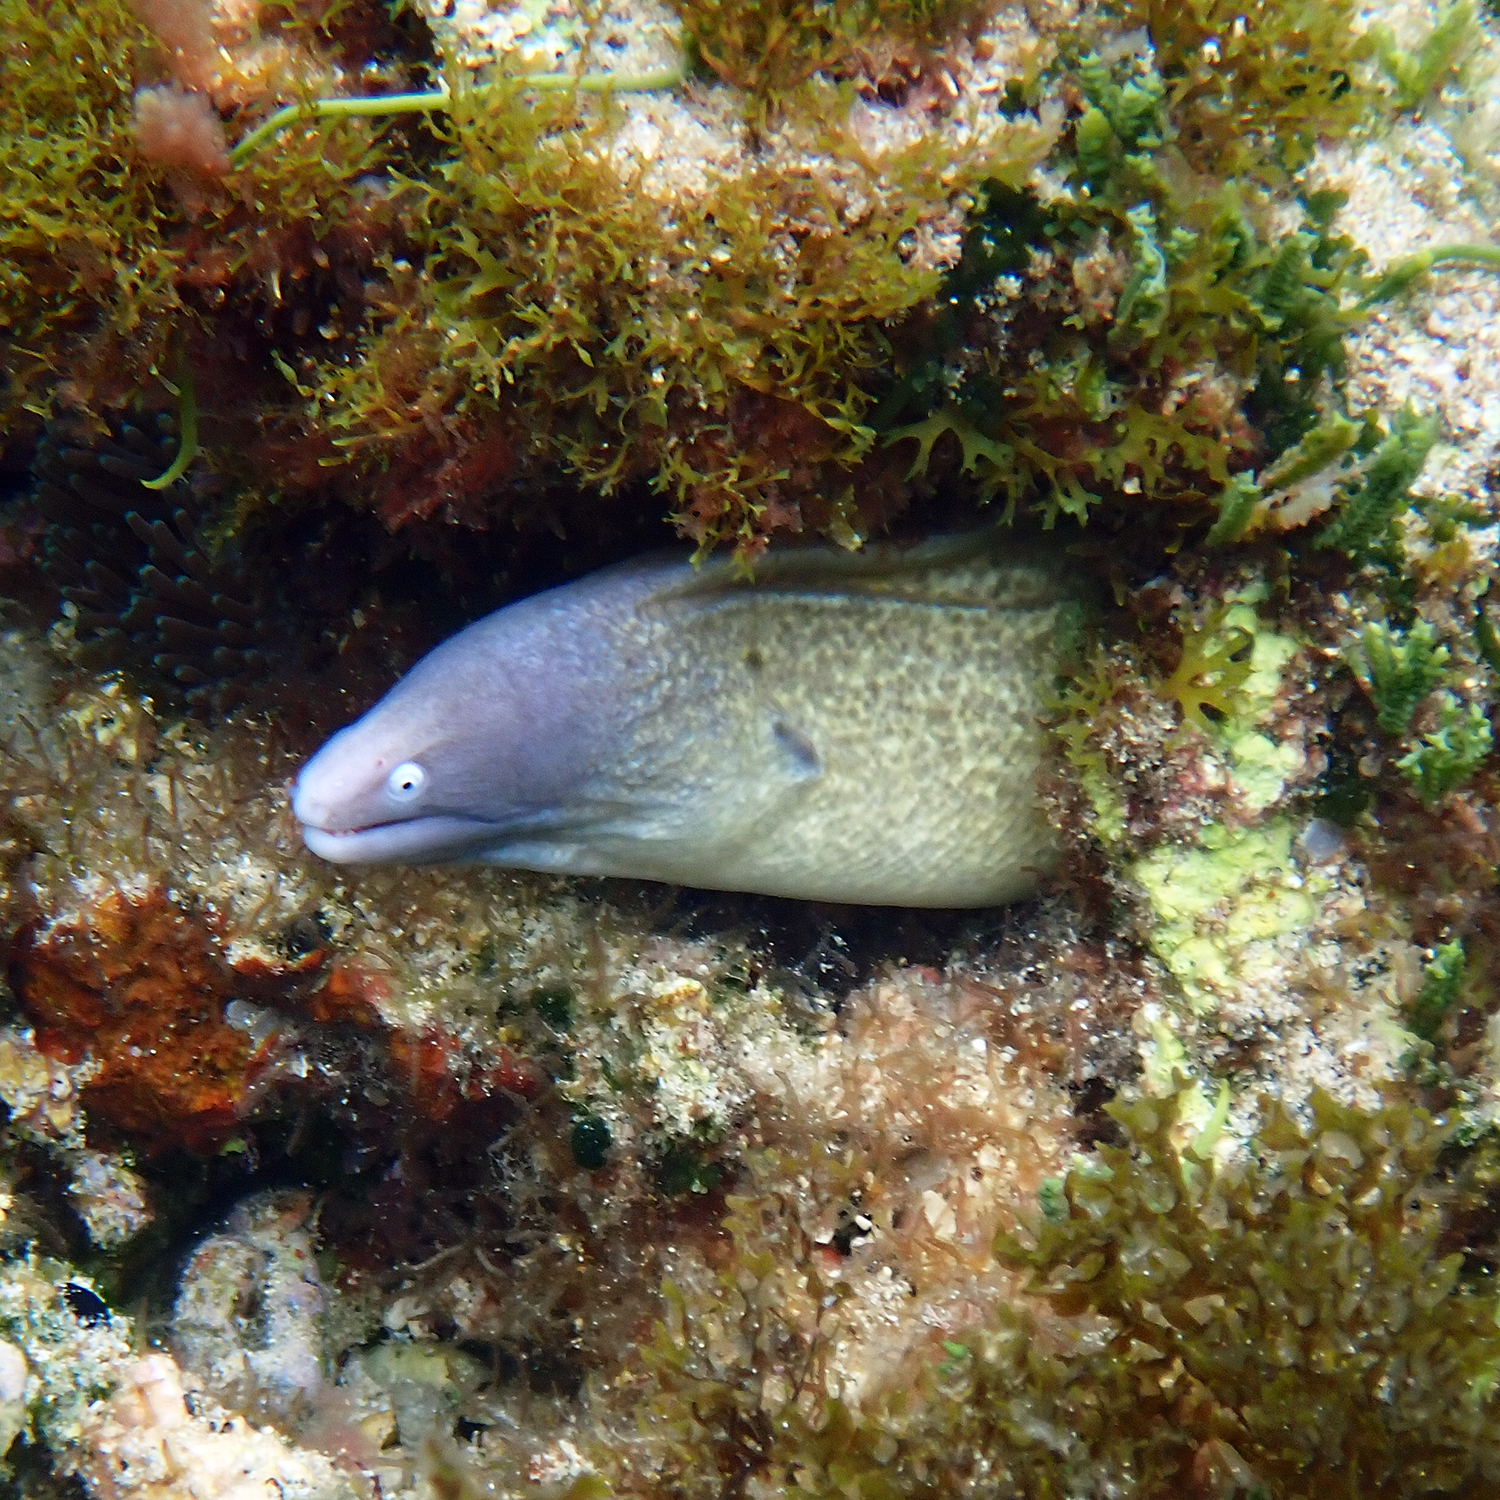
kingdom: Animalia
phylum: Chordata
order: Anguilliformes
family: Muraenidae
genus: Gymnothorax
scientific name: Gymnothorax thyrsoideus
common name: Greyface moray
